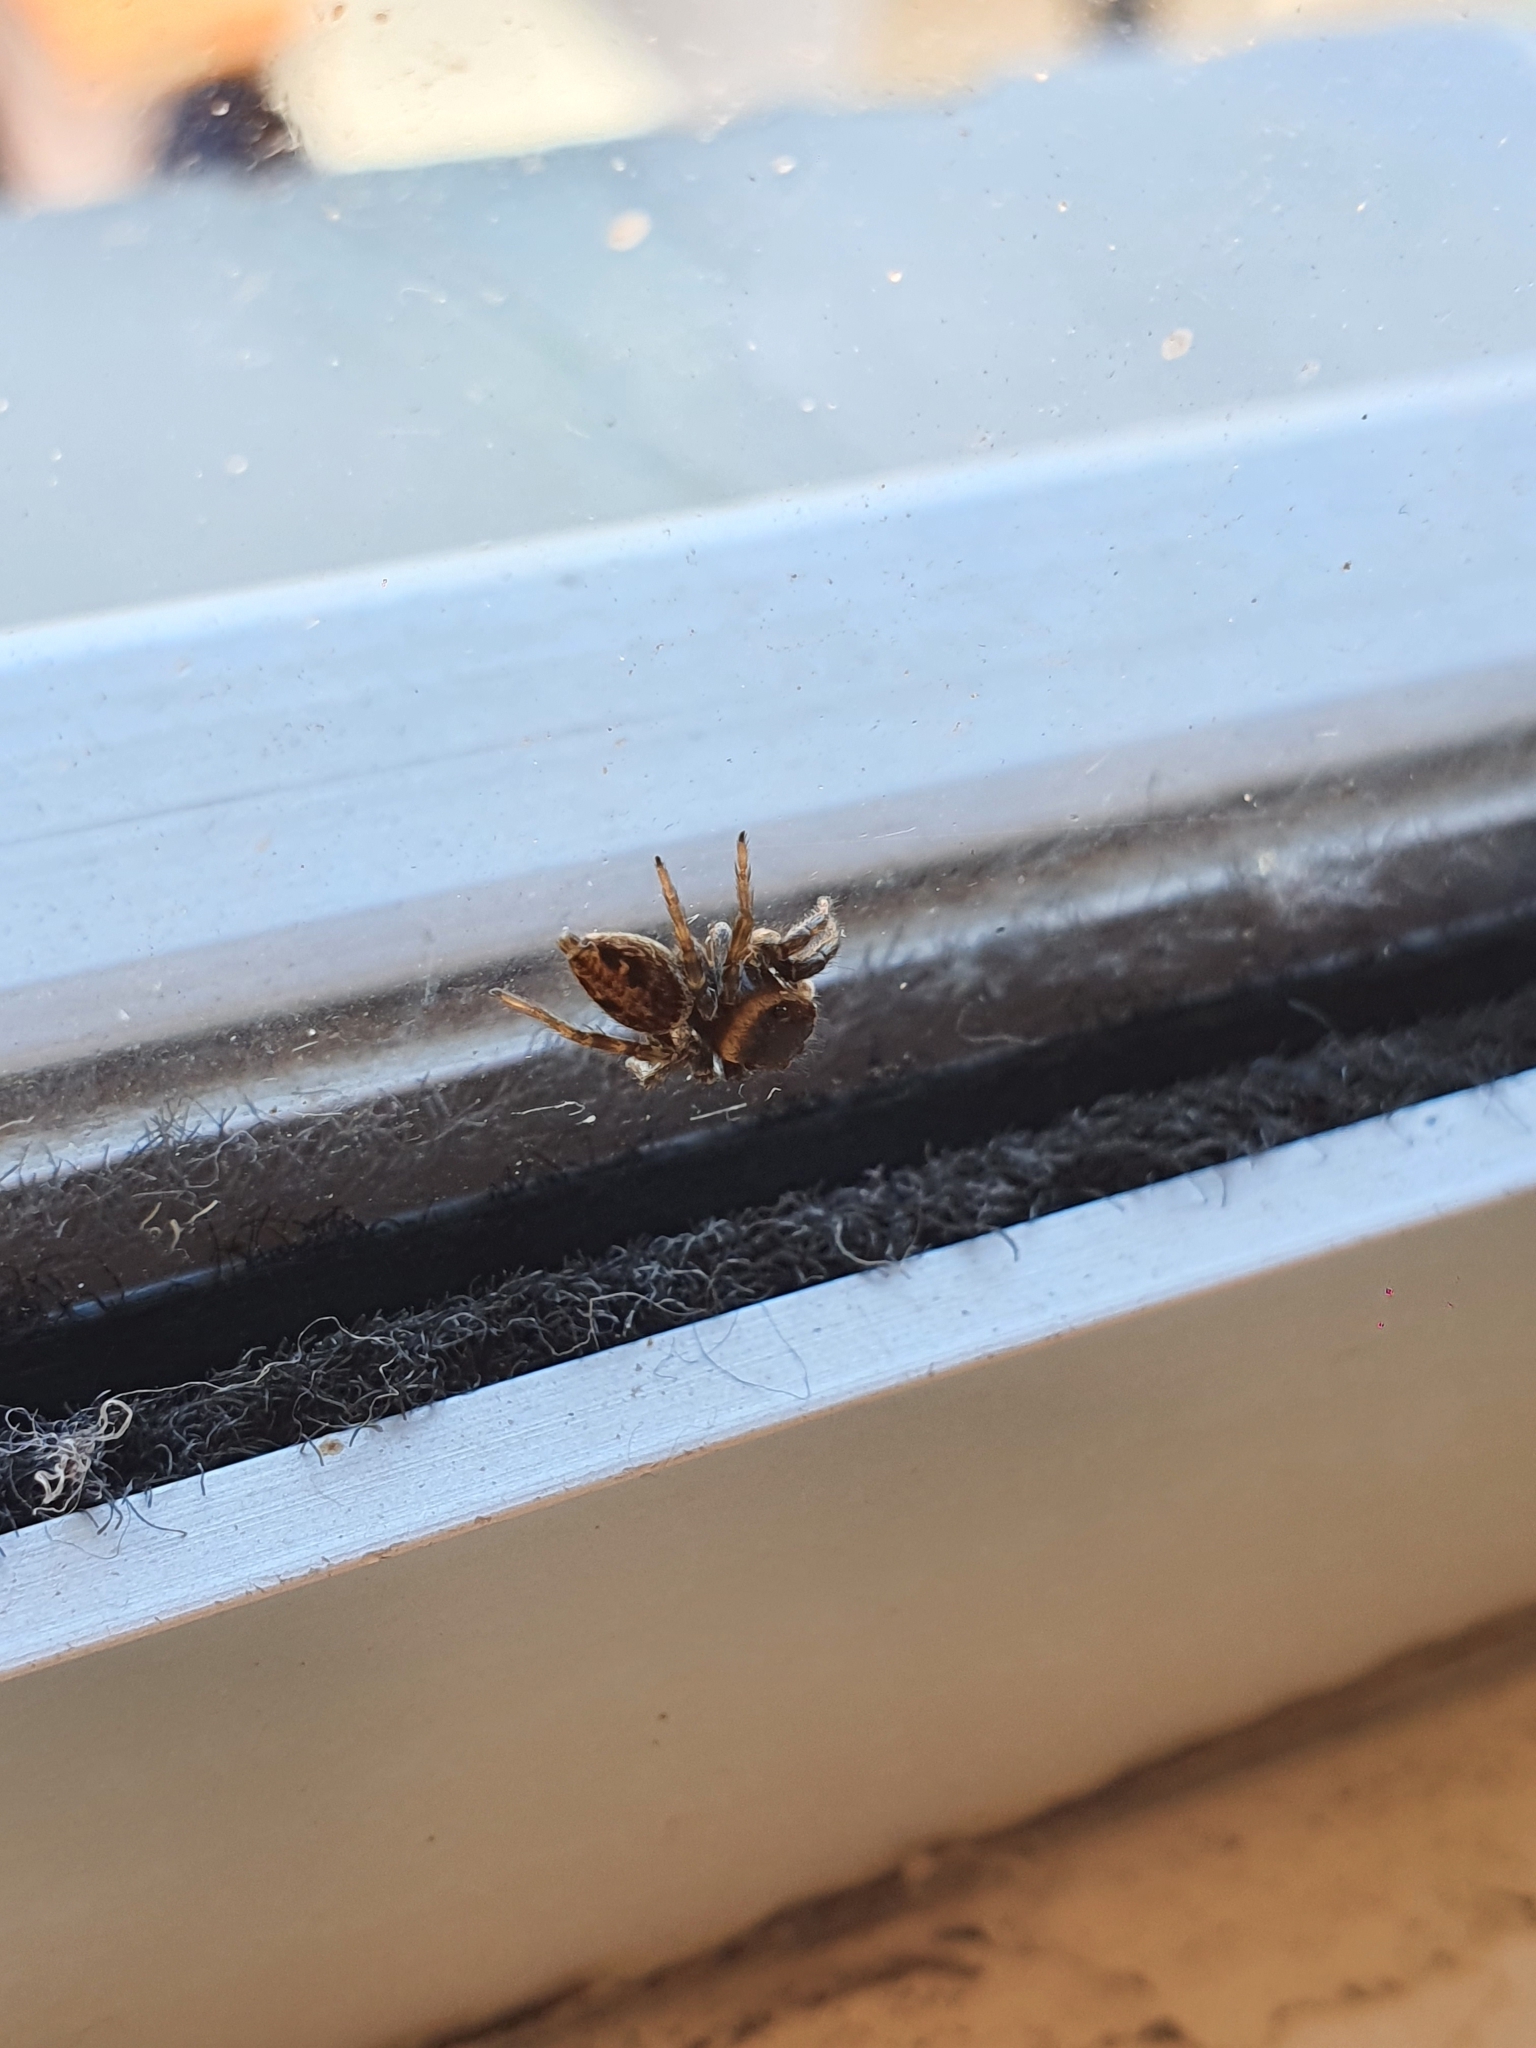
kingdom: Animalia
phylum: Arthropoda
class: Arachnida
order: Araneae
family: Salticidae
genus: Hasarius
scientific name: Hasarius adansoni
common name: Jumping spider
